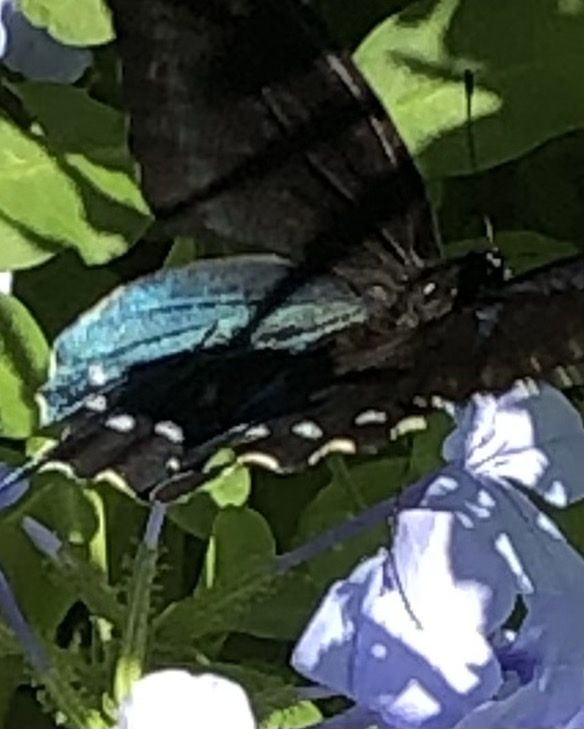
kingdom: Animalia
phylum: Arthropoda
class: Insecta
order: Lepidoptera
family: Papilionidae
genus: Battus
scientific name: Battus philenor
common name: Pipevine swallowtail
